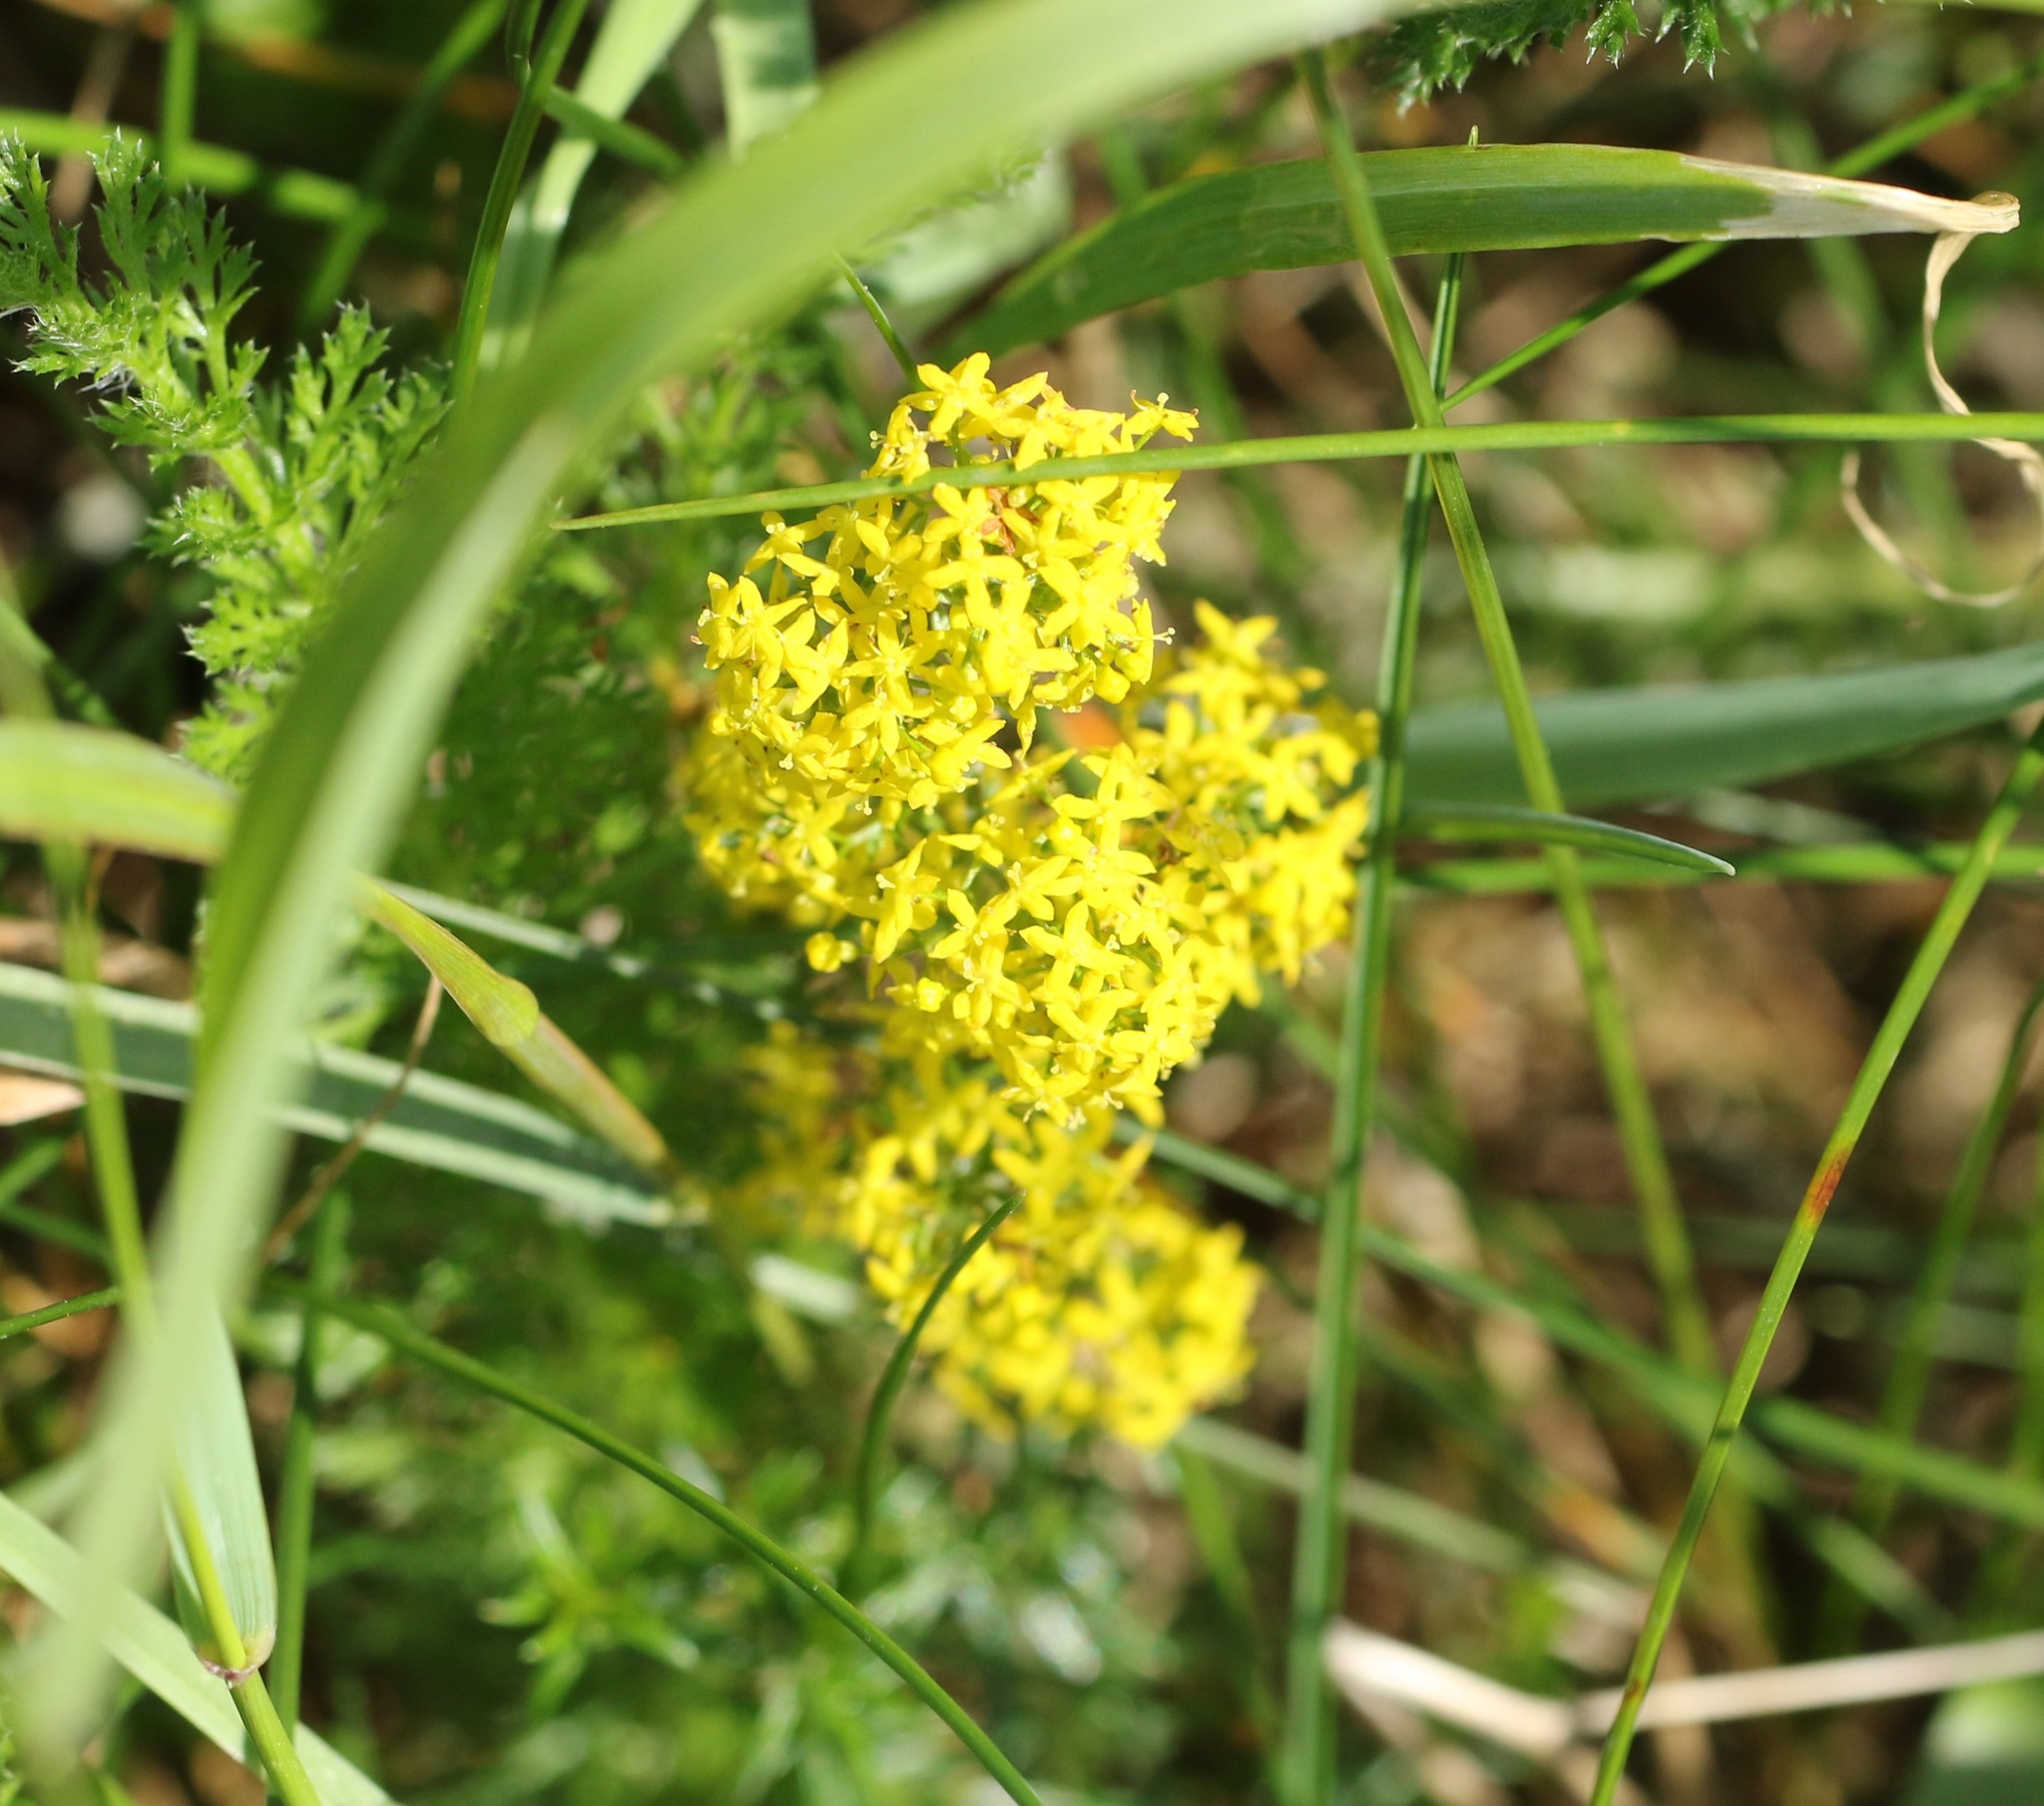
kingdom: Plantae
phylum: Tracheophyta
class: Magnoliopsida
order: Gentianales
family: Rubiaceae
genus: Galium
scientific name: Galium verum
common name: Lady's bedstraw
